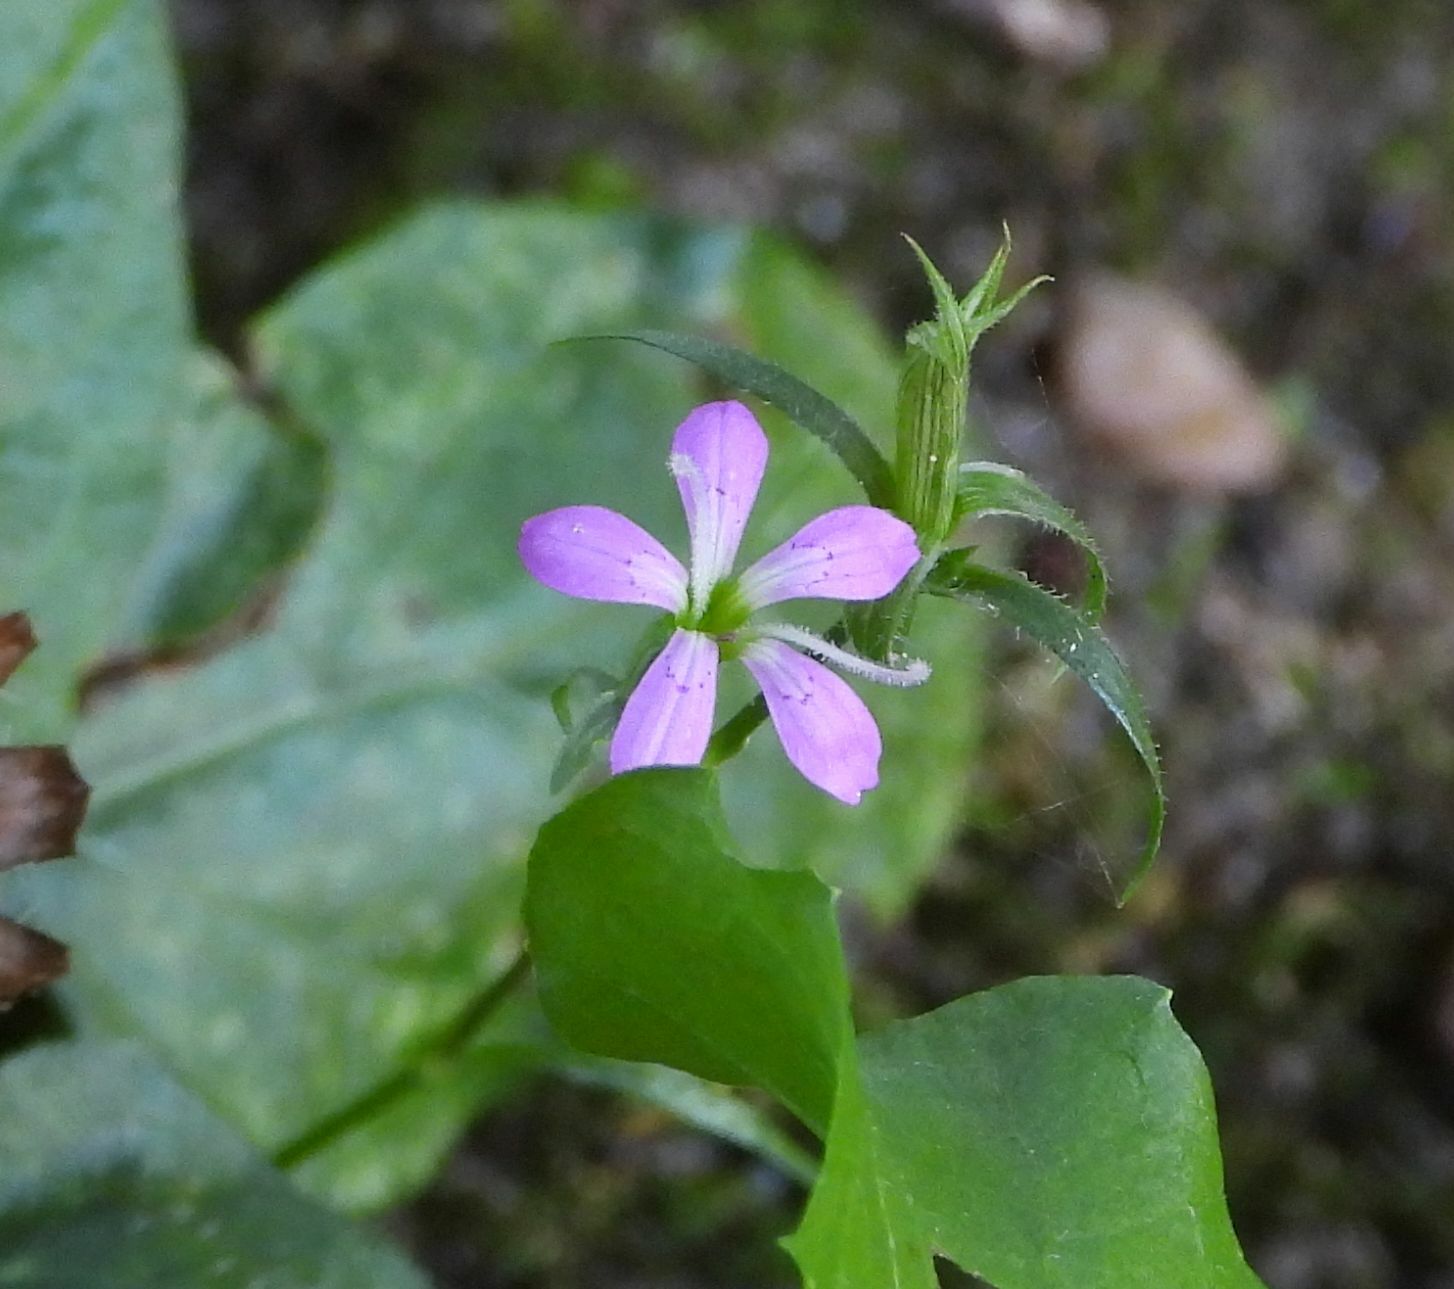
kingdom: Plantae
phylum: Tracheophyta
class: Magnoliopsida
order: Caryophyllales
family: Caryophyllaceae
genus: Dianthus
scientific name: Dianthus armeria
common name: Deptford pink
